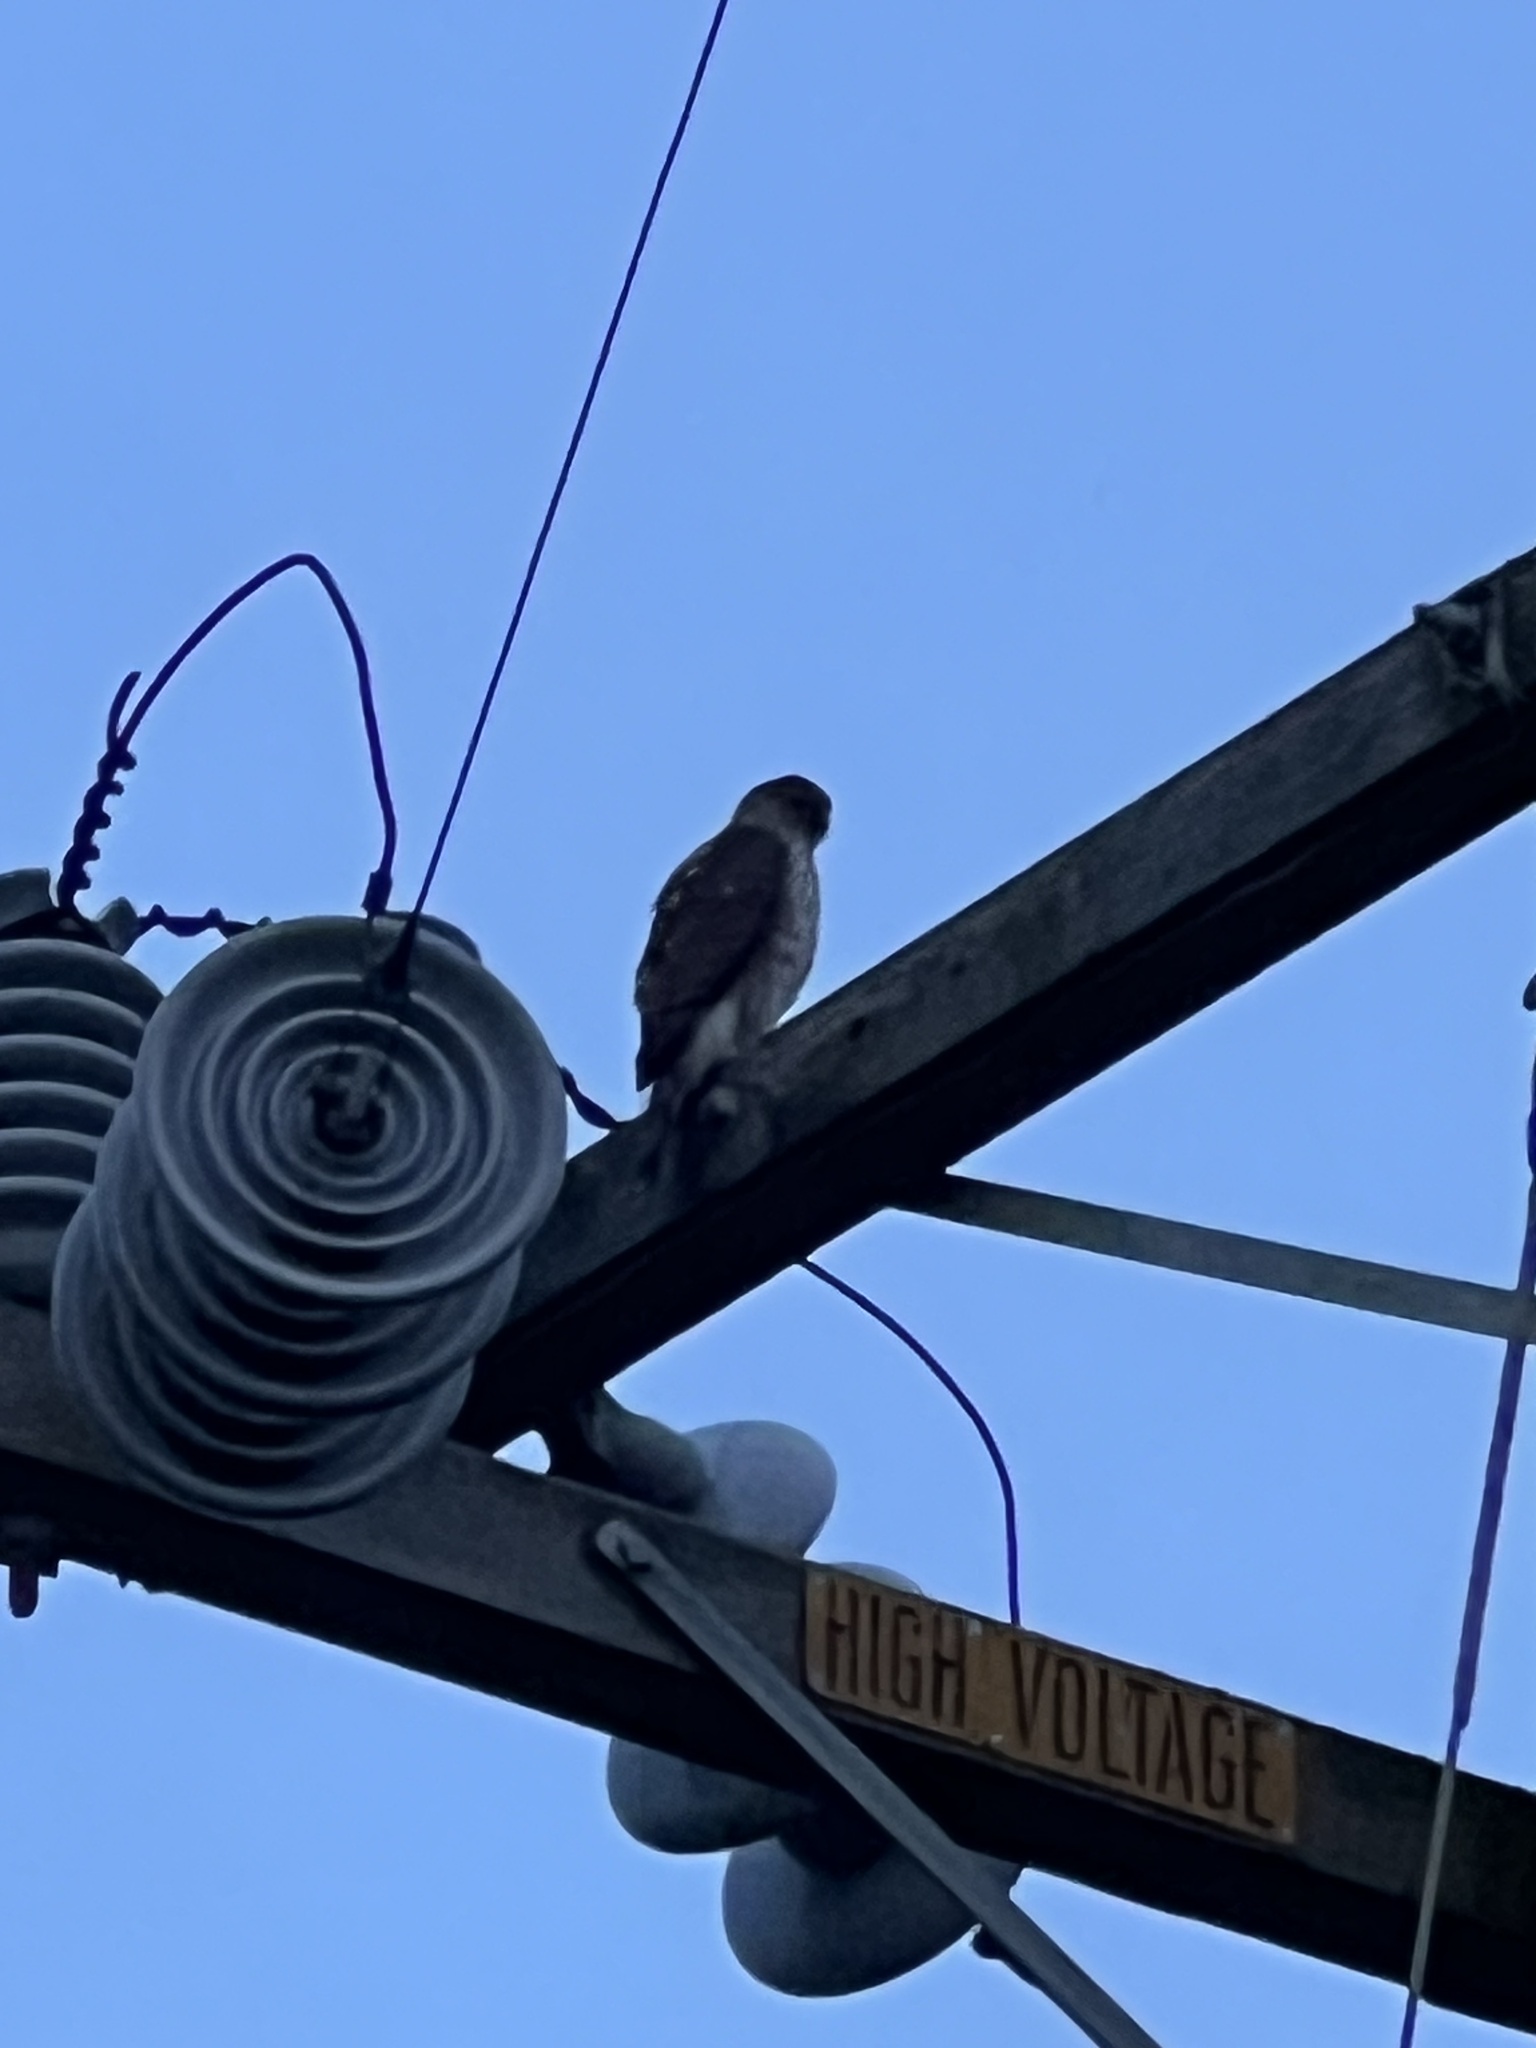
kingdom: Animalia
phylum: Chordata
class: Aves
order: Accipitriformes
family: Accipitridae
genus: Accipiter
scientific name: Accipiter cooperii
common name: Cooper's hawk
